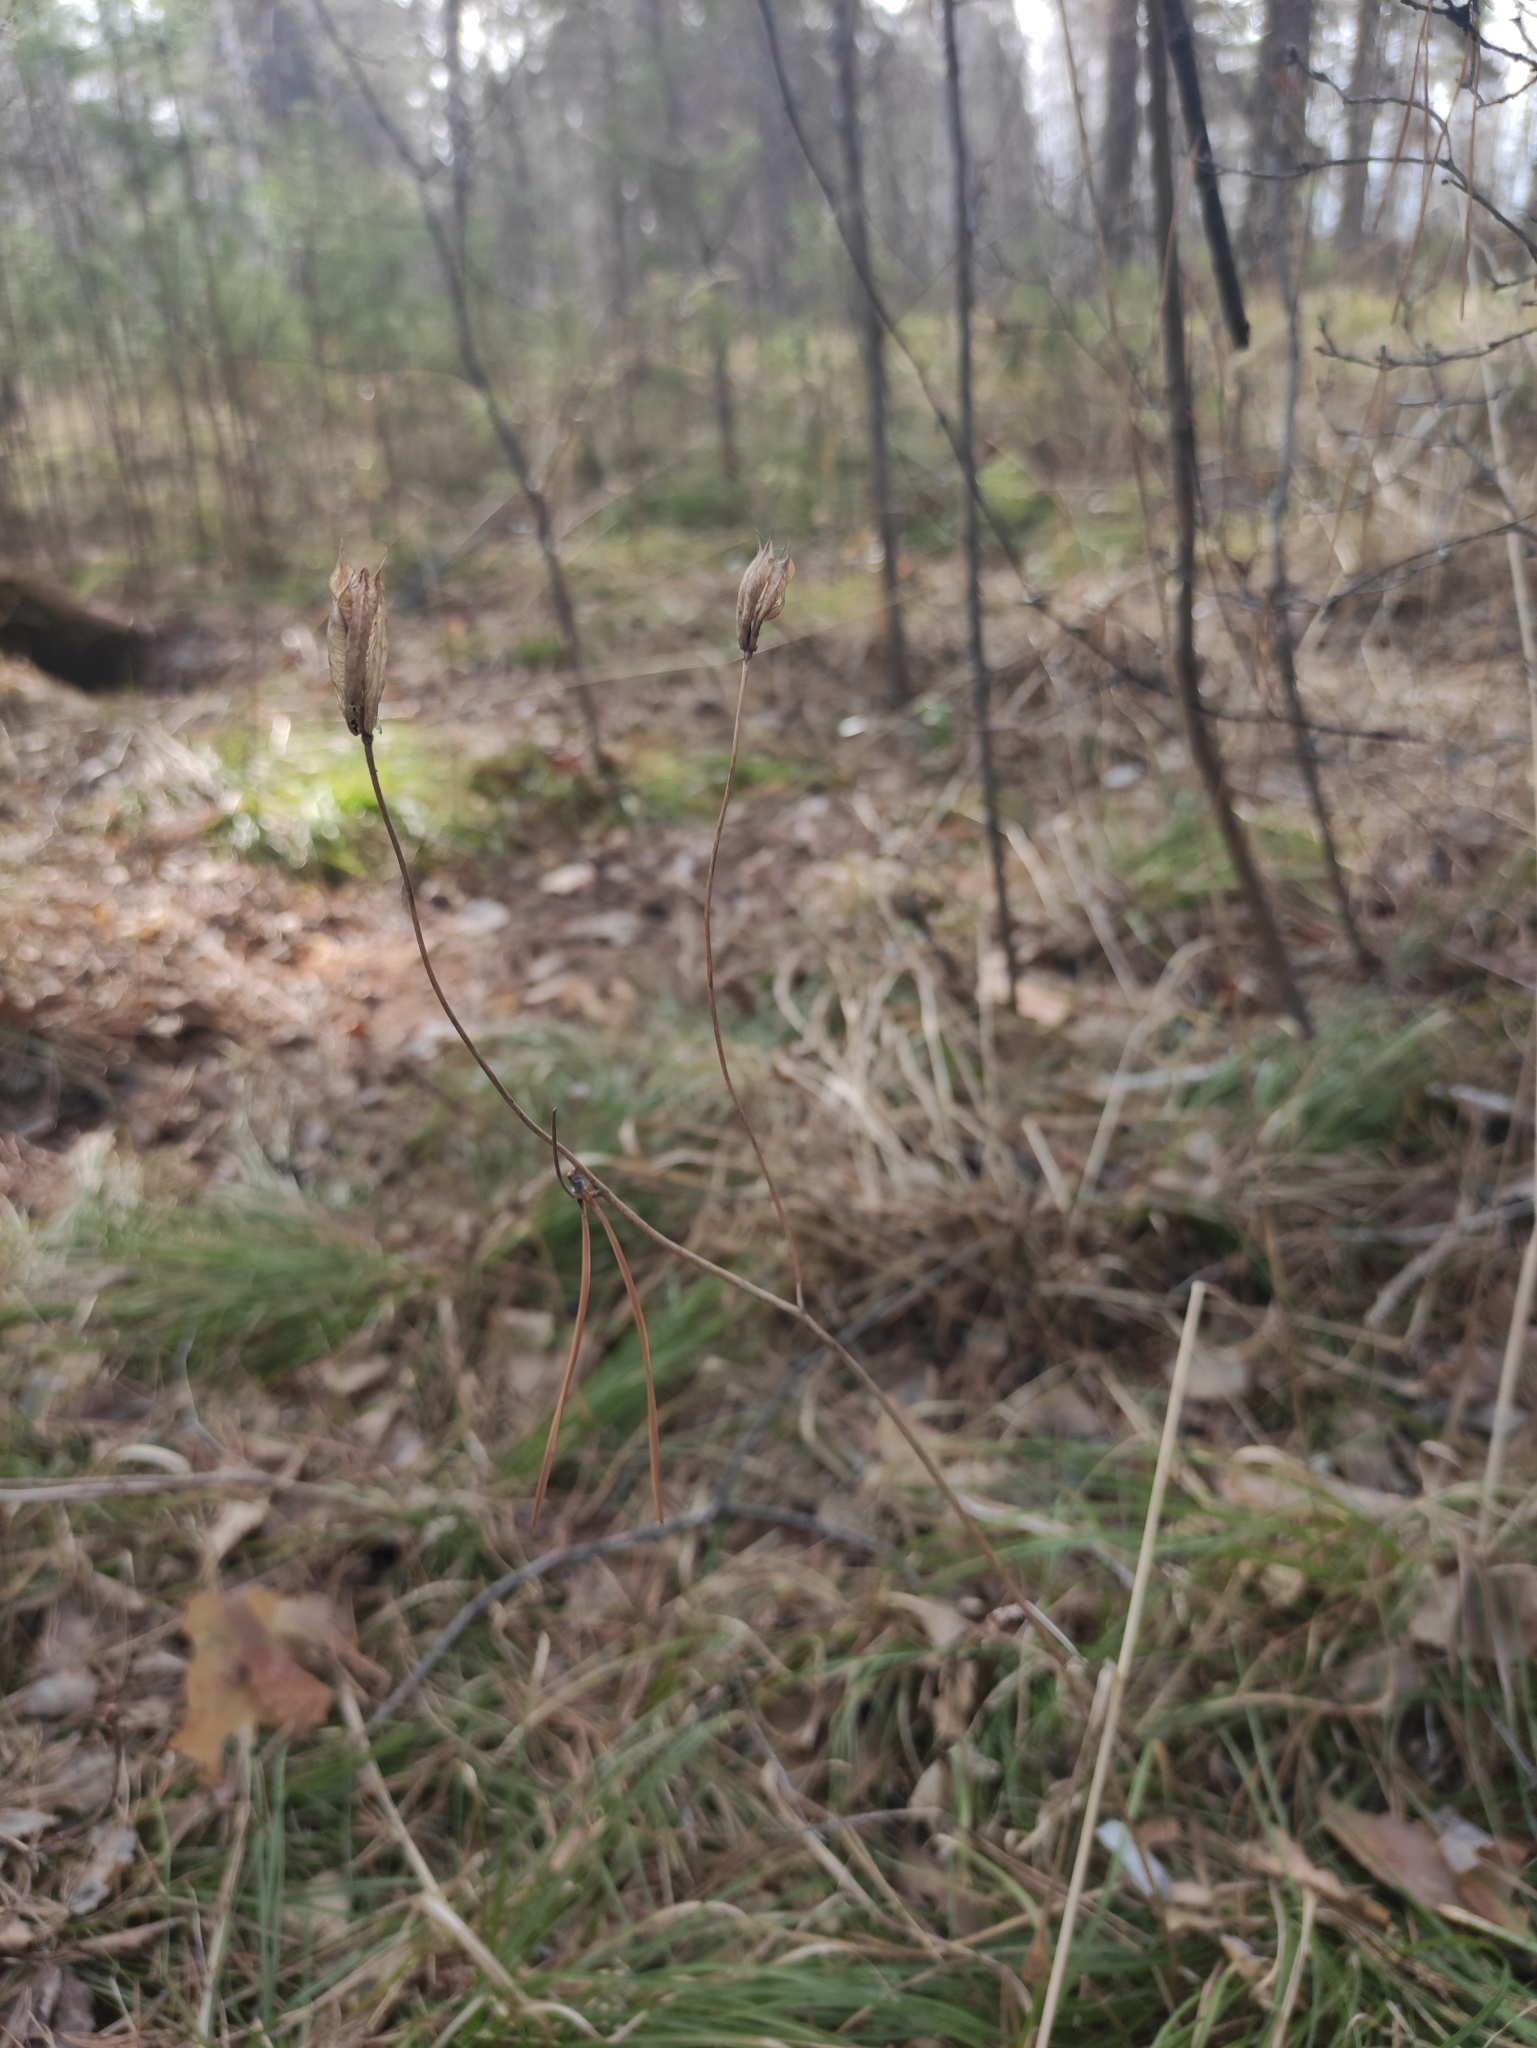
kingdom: Plantae
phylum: Tracheophyta
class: Magnoliopsida
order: Ranunculales
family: Ranunculaceae
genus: Aquilegia
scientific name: Aquilegia sibirica
